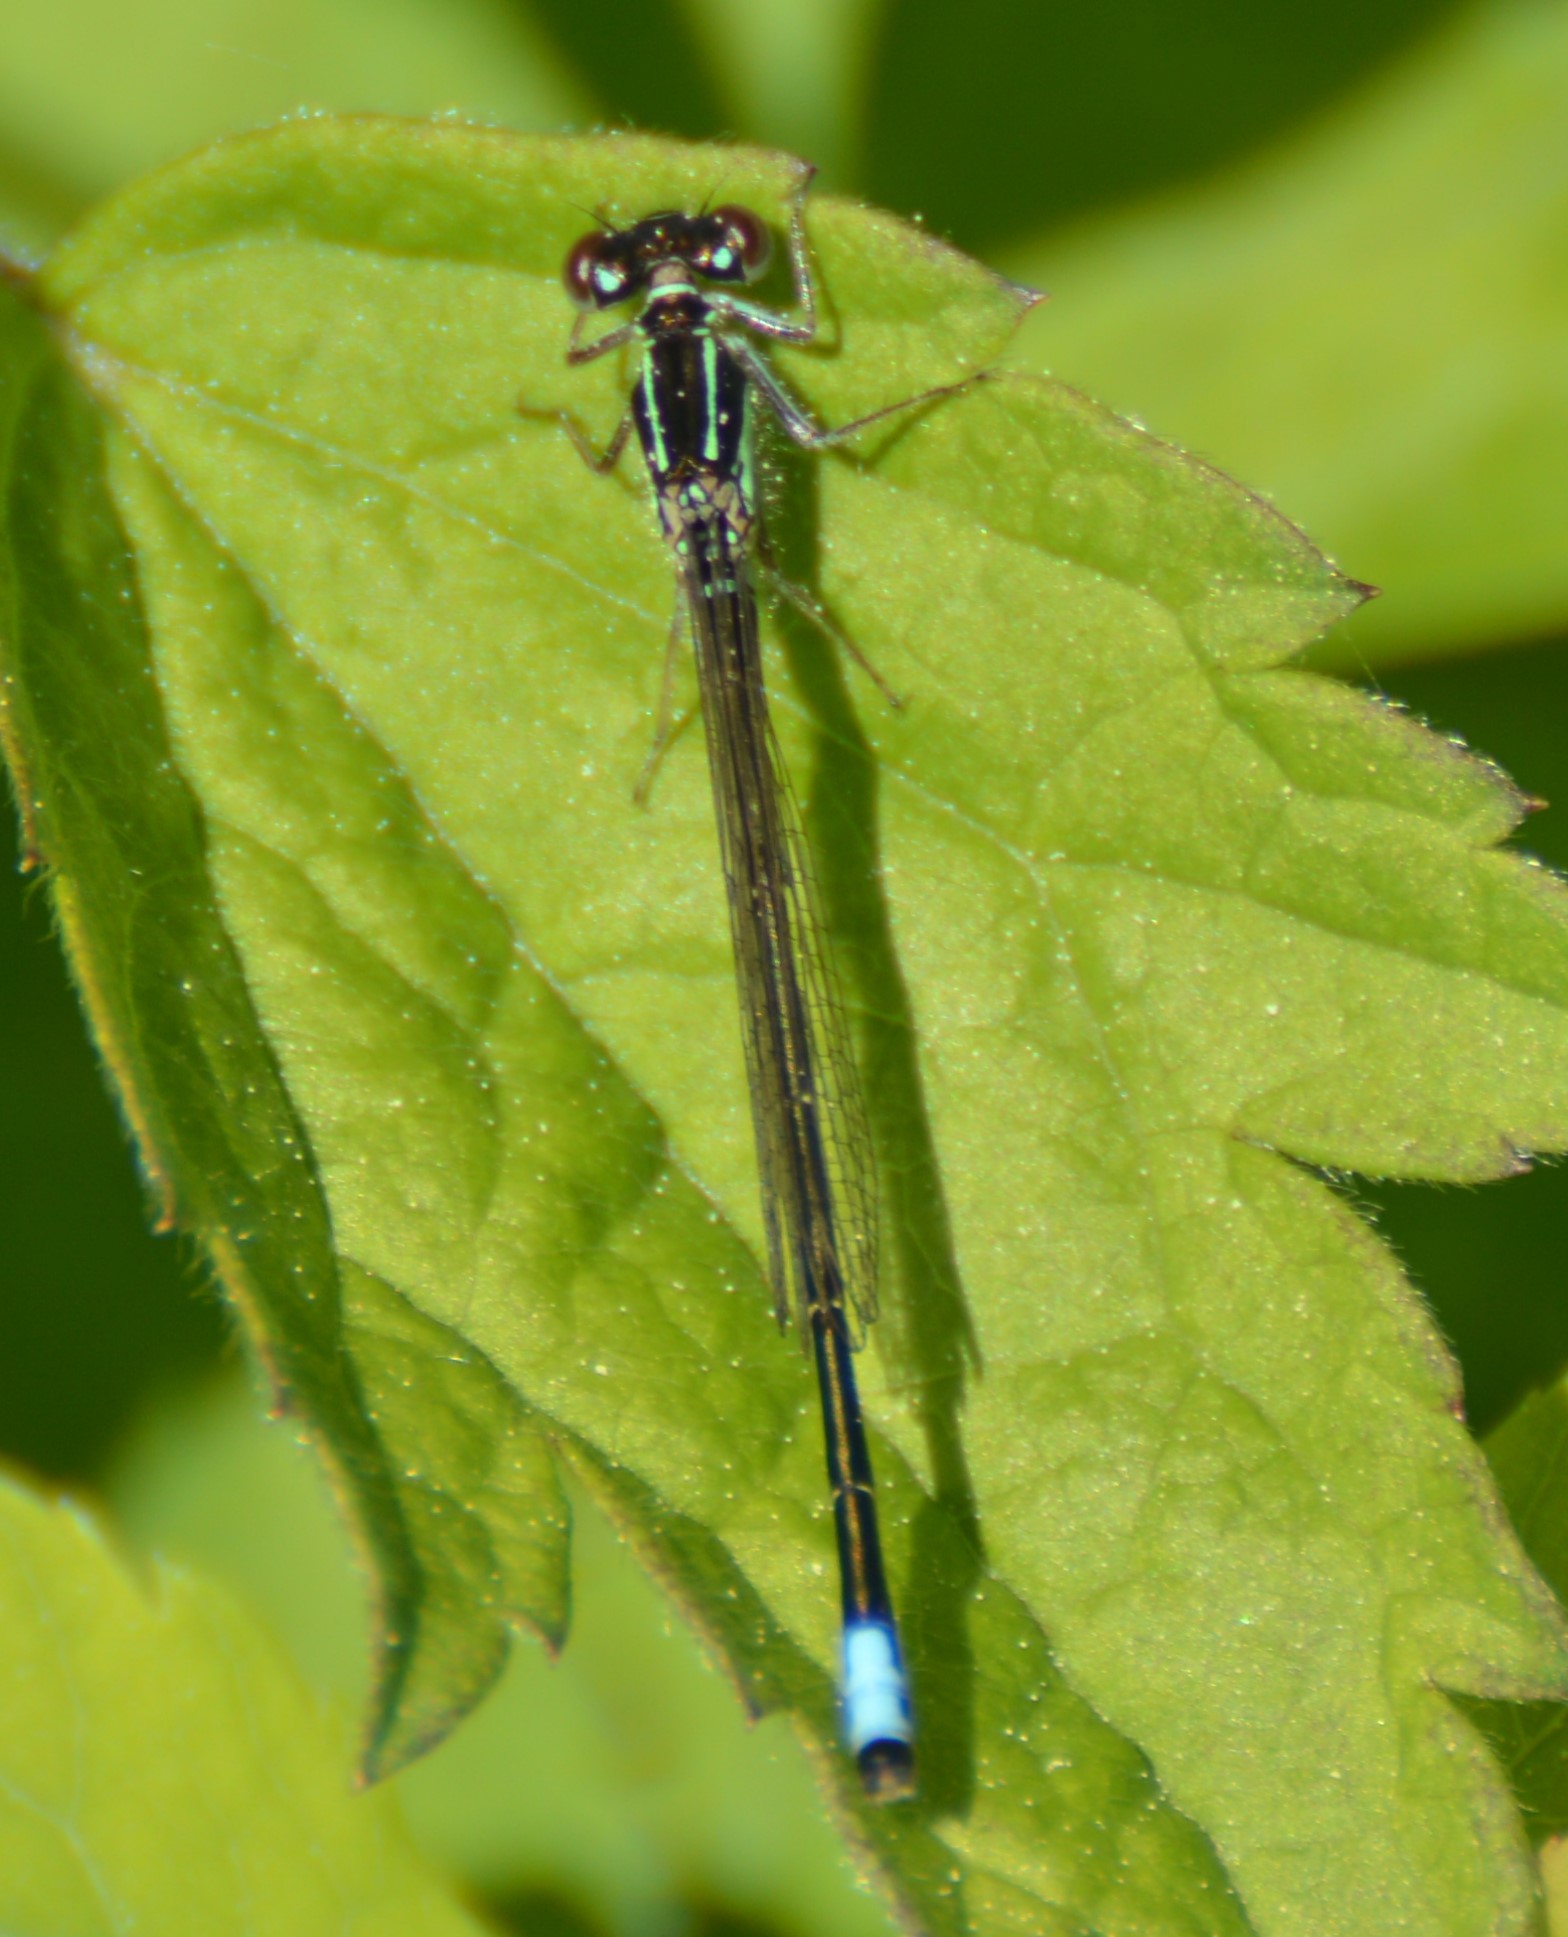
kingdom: Animalia
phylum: Arthropoda
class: Insecta
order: Odonata
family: Coenagrionidae
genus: Ischnura
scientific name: Ischnura verticalis
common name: Eastern forktail
